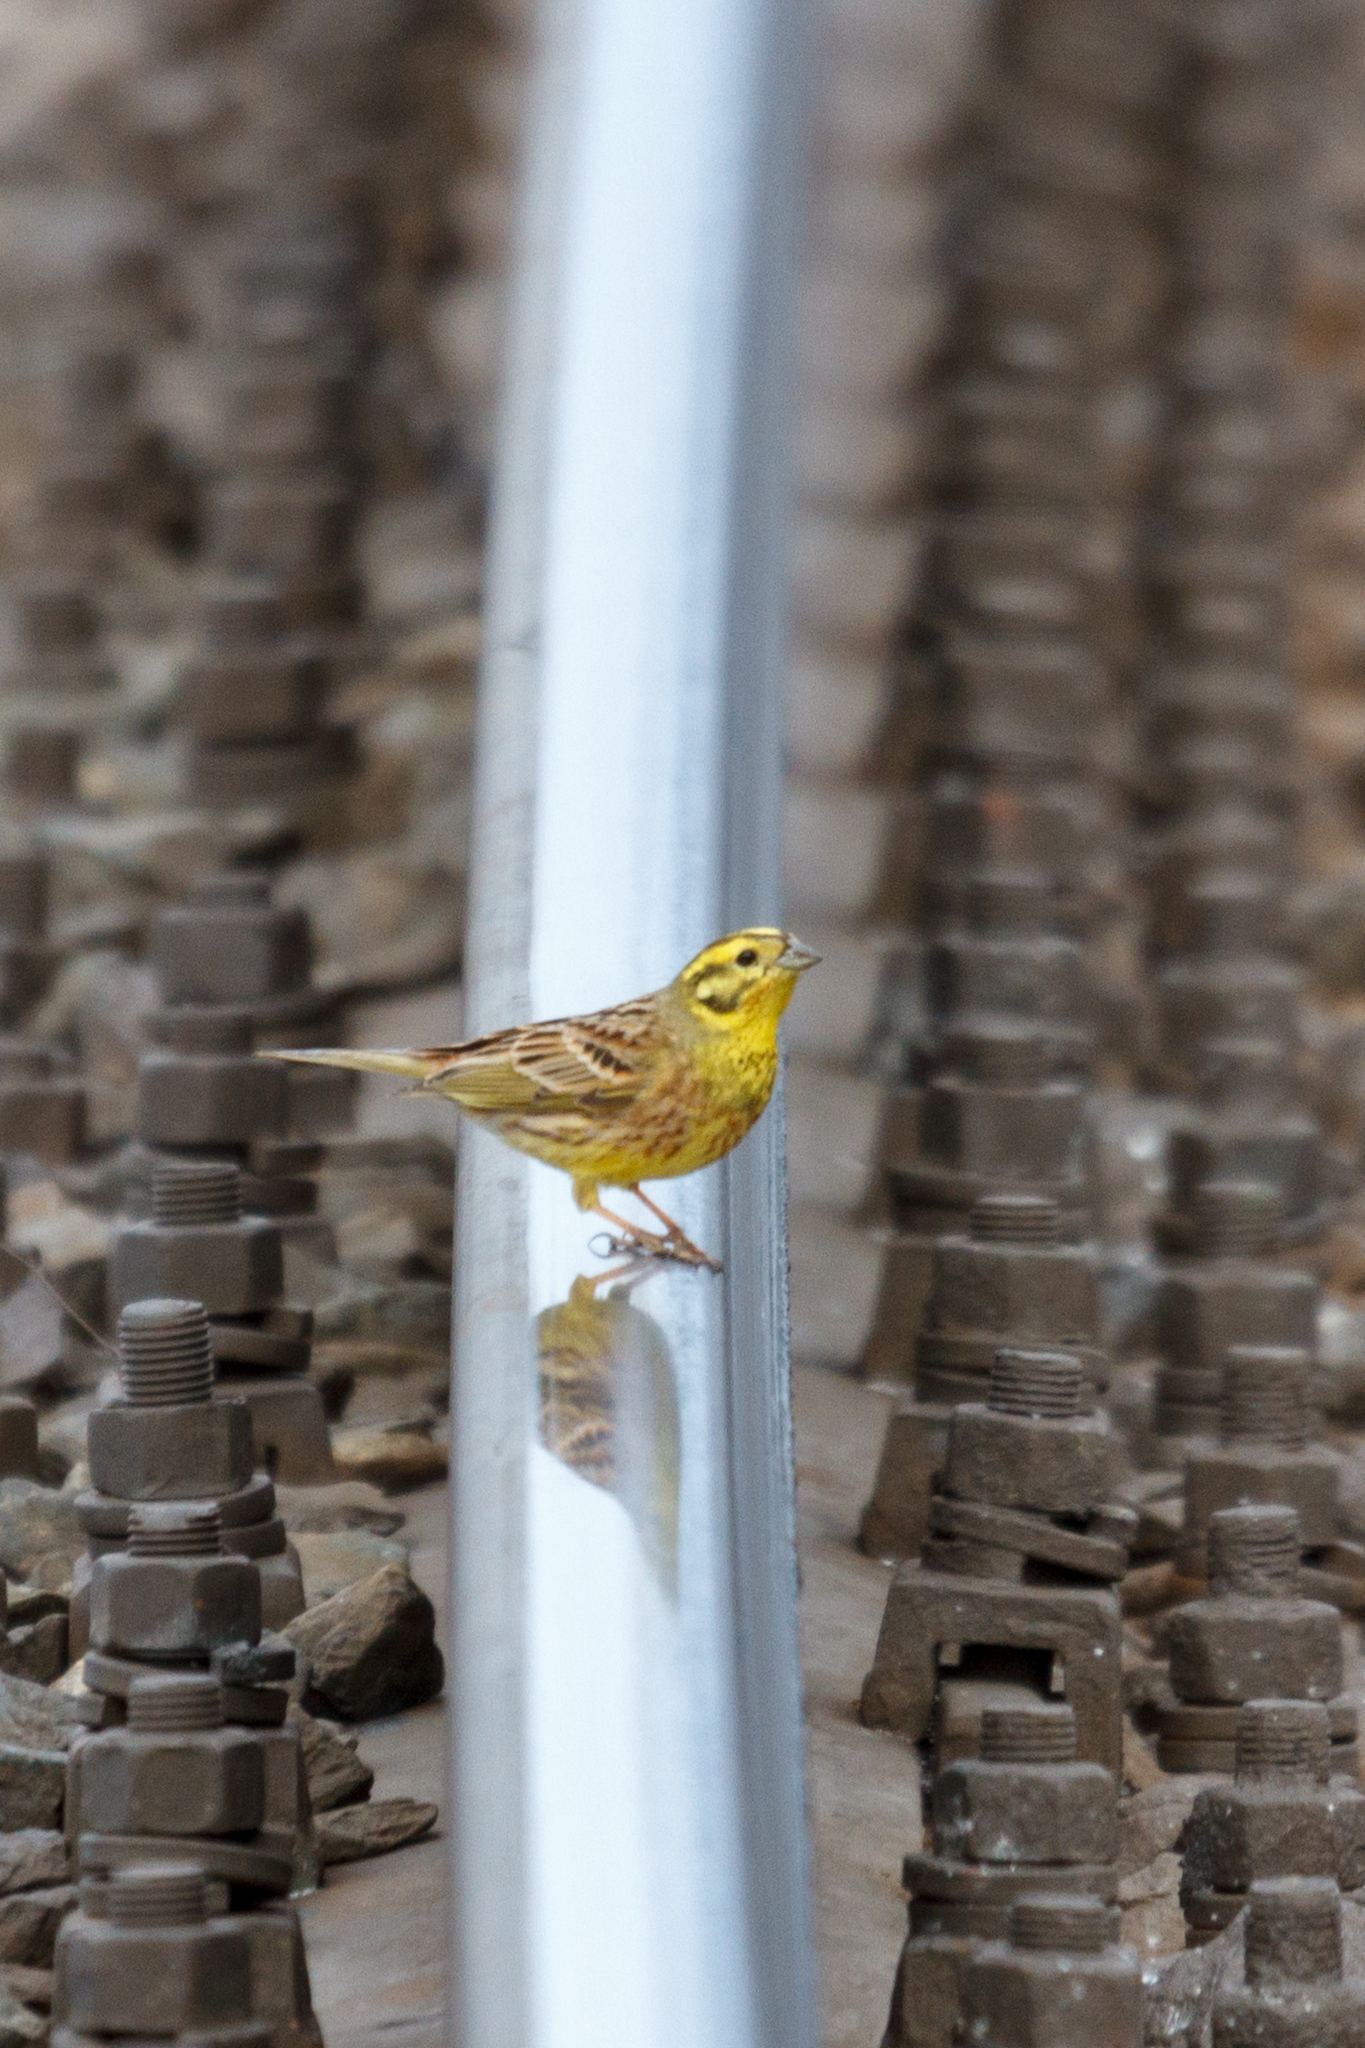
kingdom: Animalia
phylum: Chordata
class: Aves
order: Passeriformes
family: Emberizidae
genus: Emberiza
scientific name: Emberiza citrinella
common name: Yellowhammer
